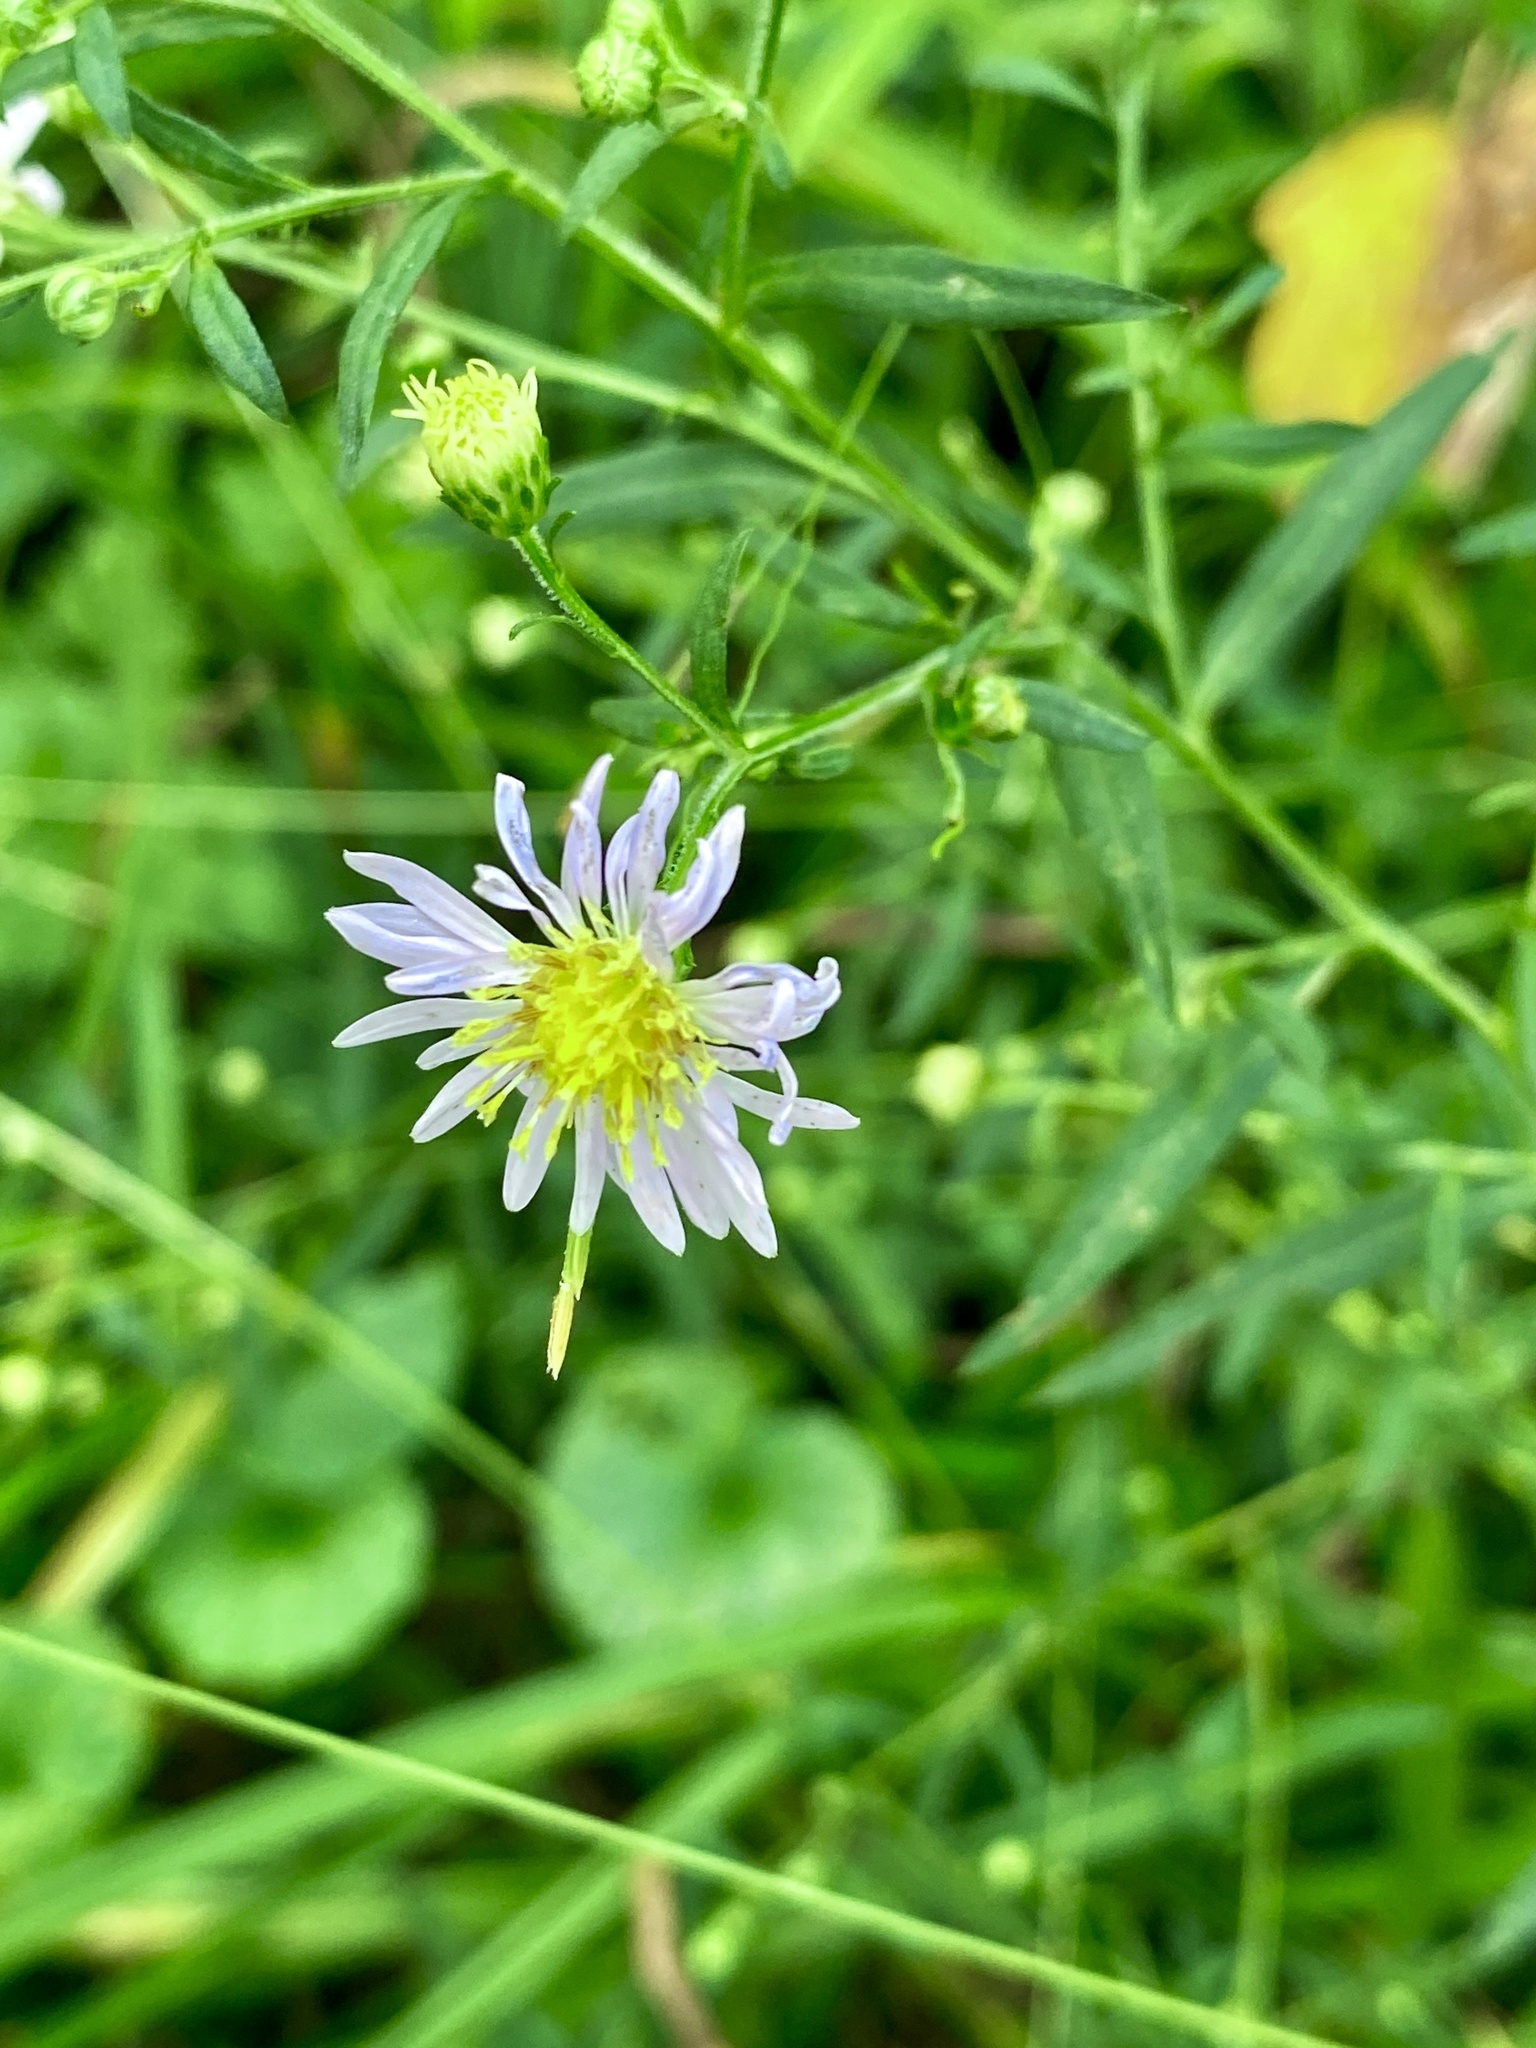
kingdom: Plantae
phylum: Tracheophyta
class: Magnoliopsida
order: Asterales
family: Asteraceae
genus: Symphyotrichum
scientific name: Symphyotrichum lanceolatum
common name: Panicled aster
